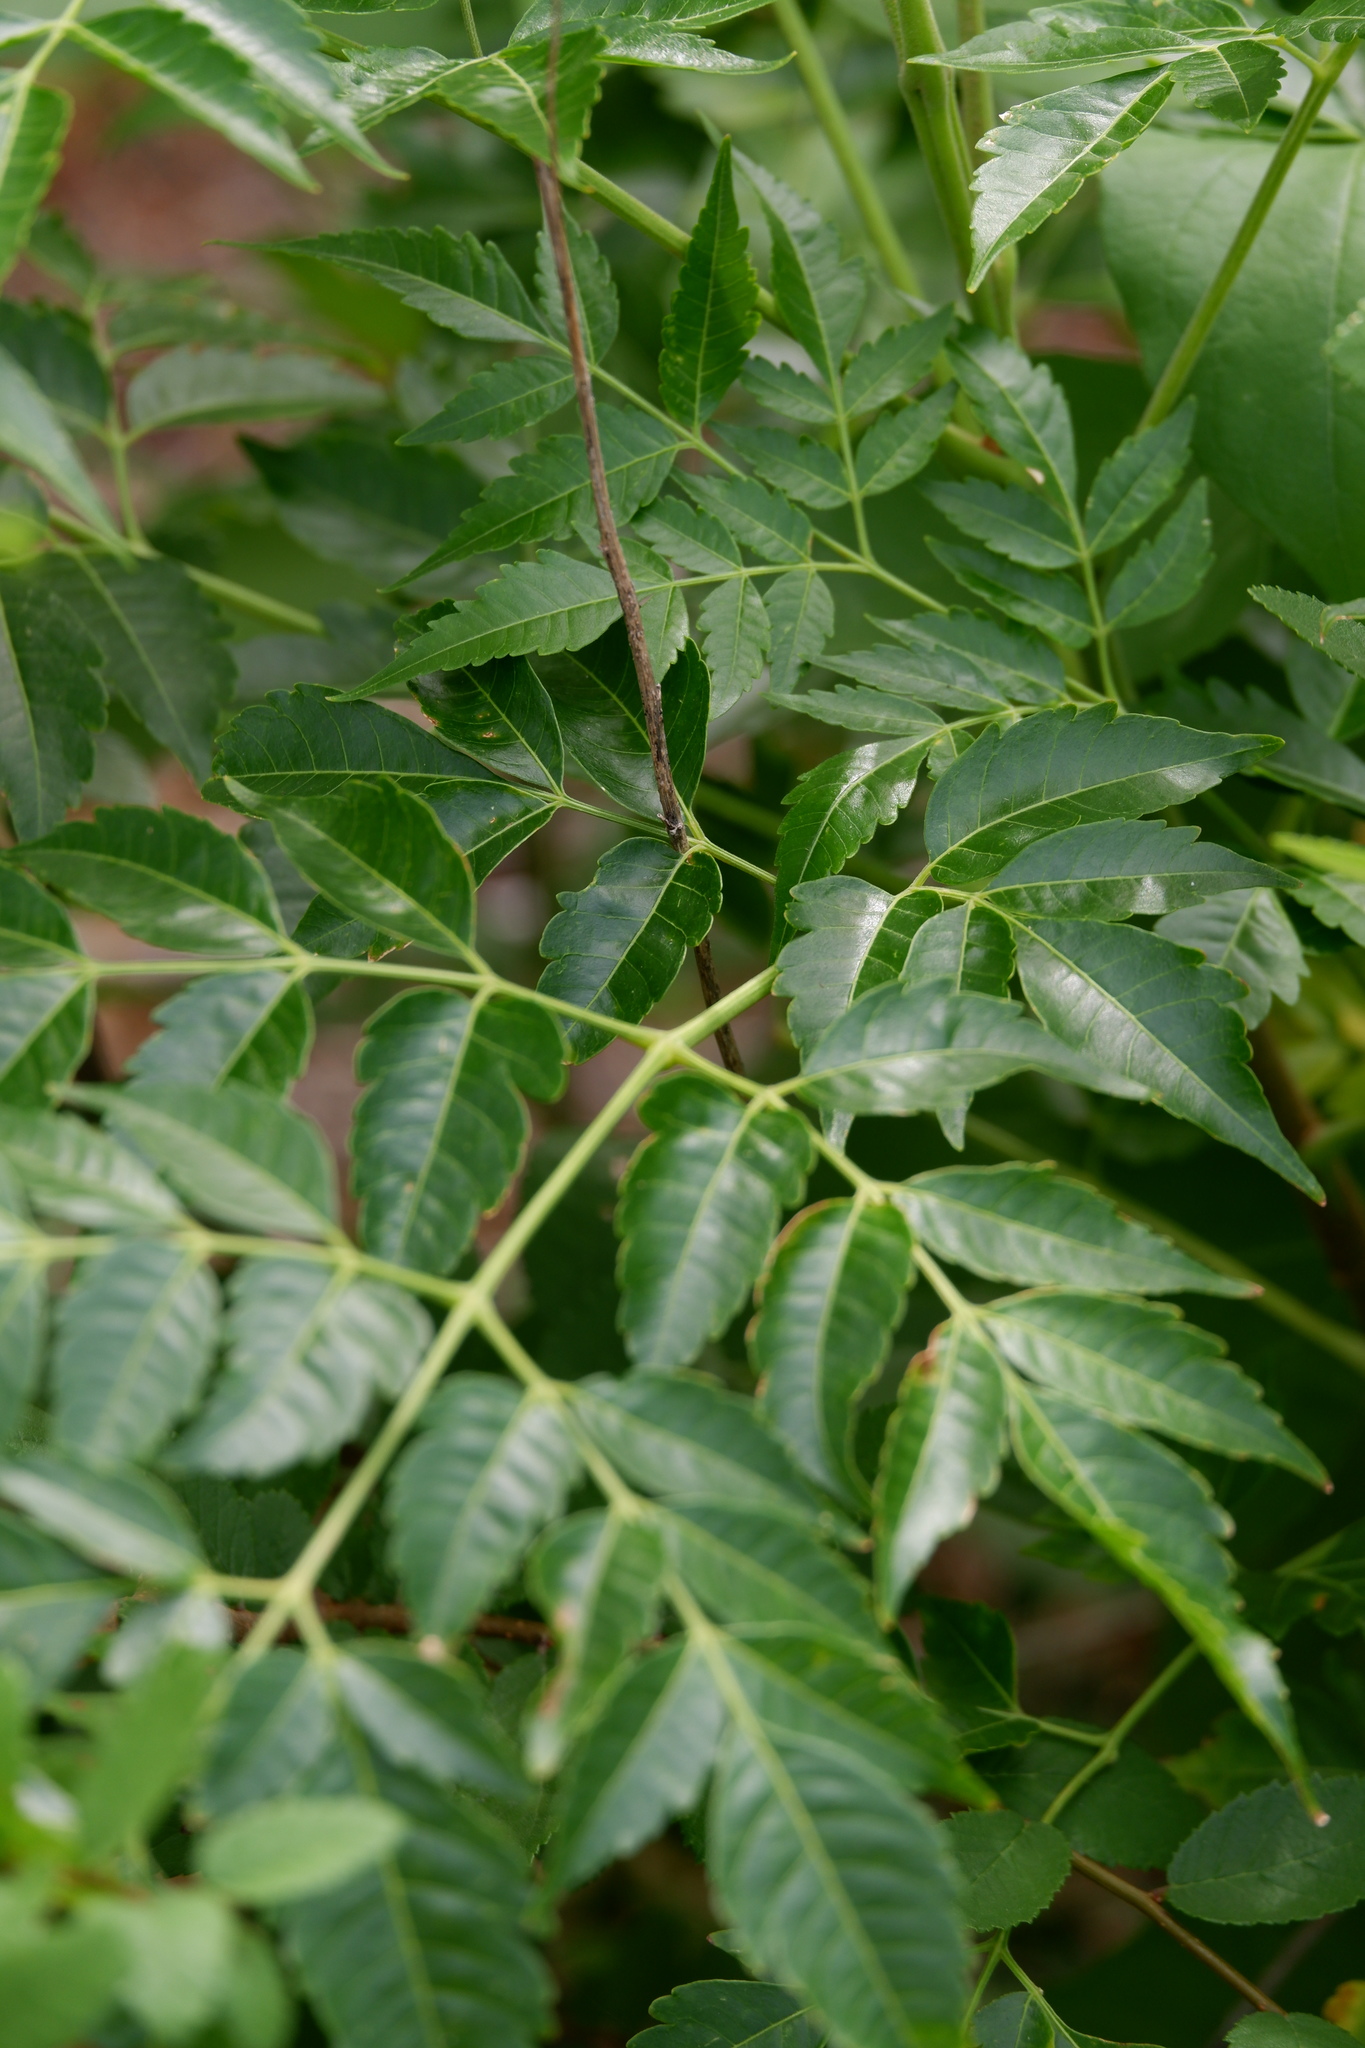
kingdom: Plantae
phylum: Tracheophyta
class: Magnoliopsida
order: Sapindales
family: Meliaceae
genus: Melia
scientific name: Melia azedarach
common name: Chinaberrytree
